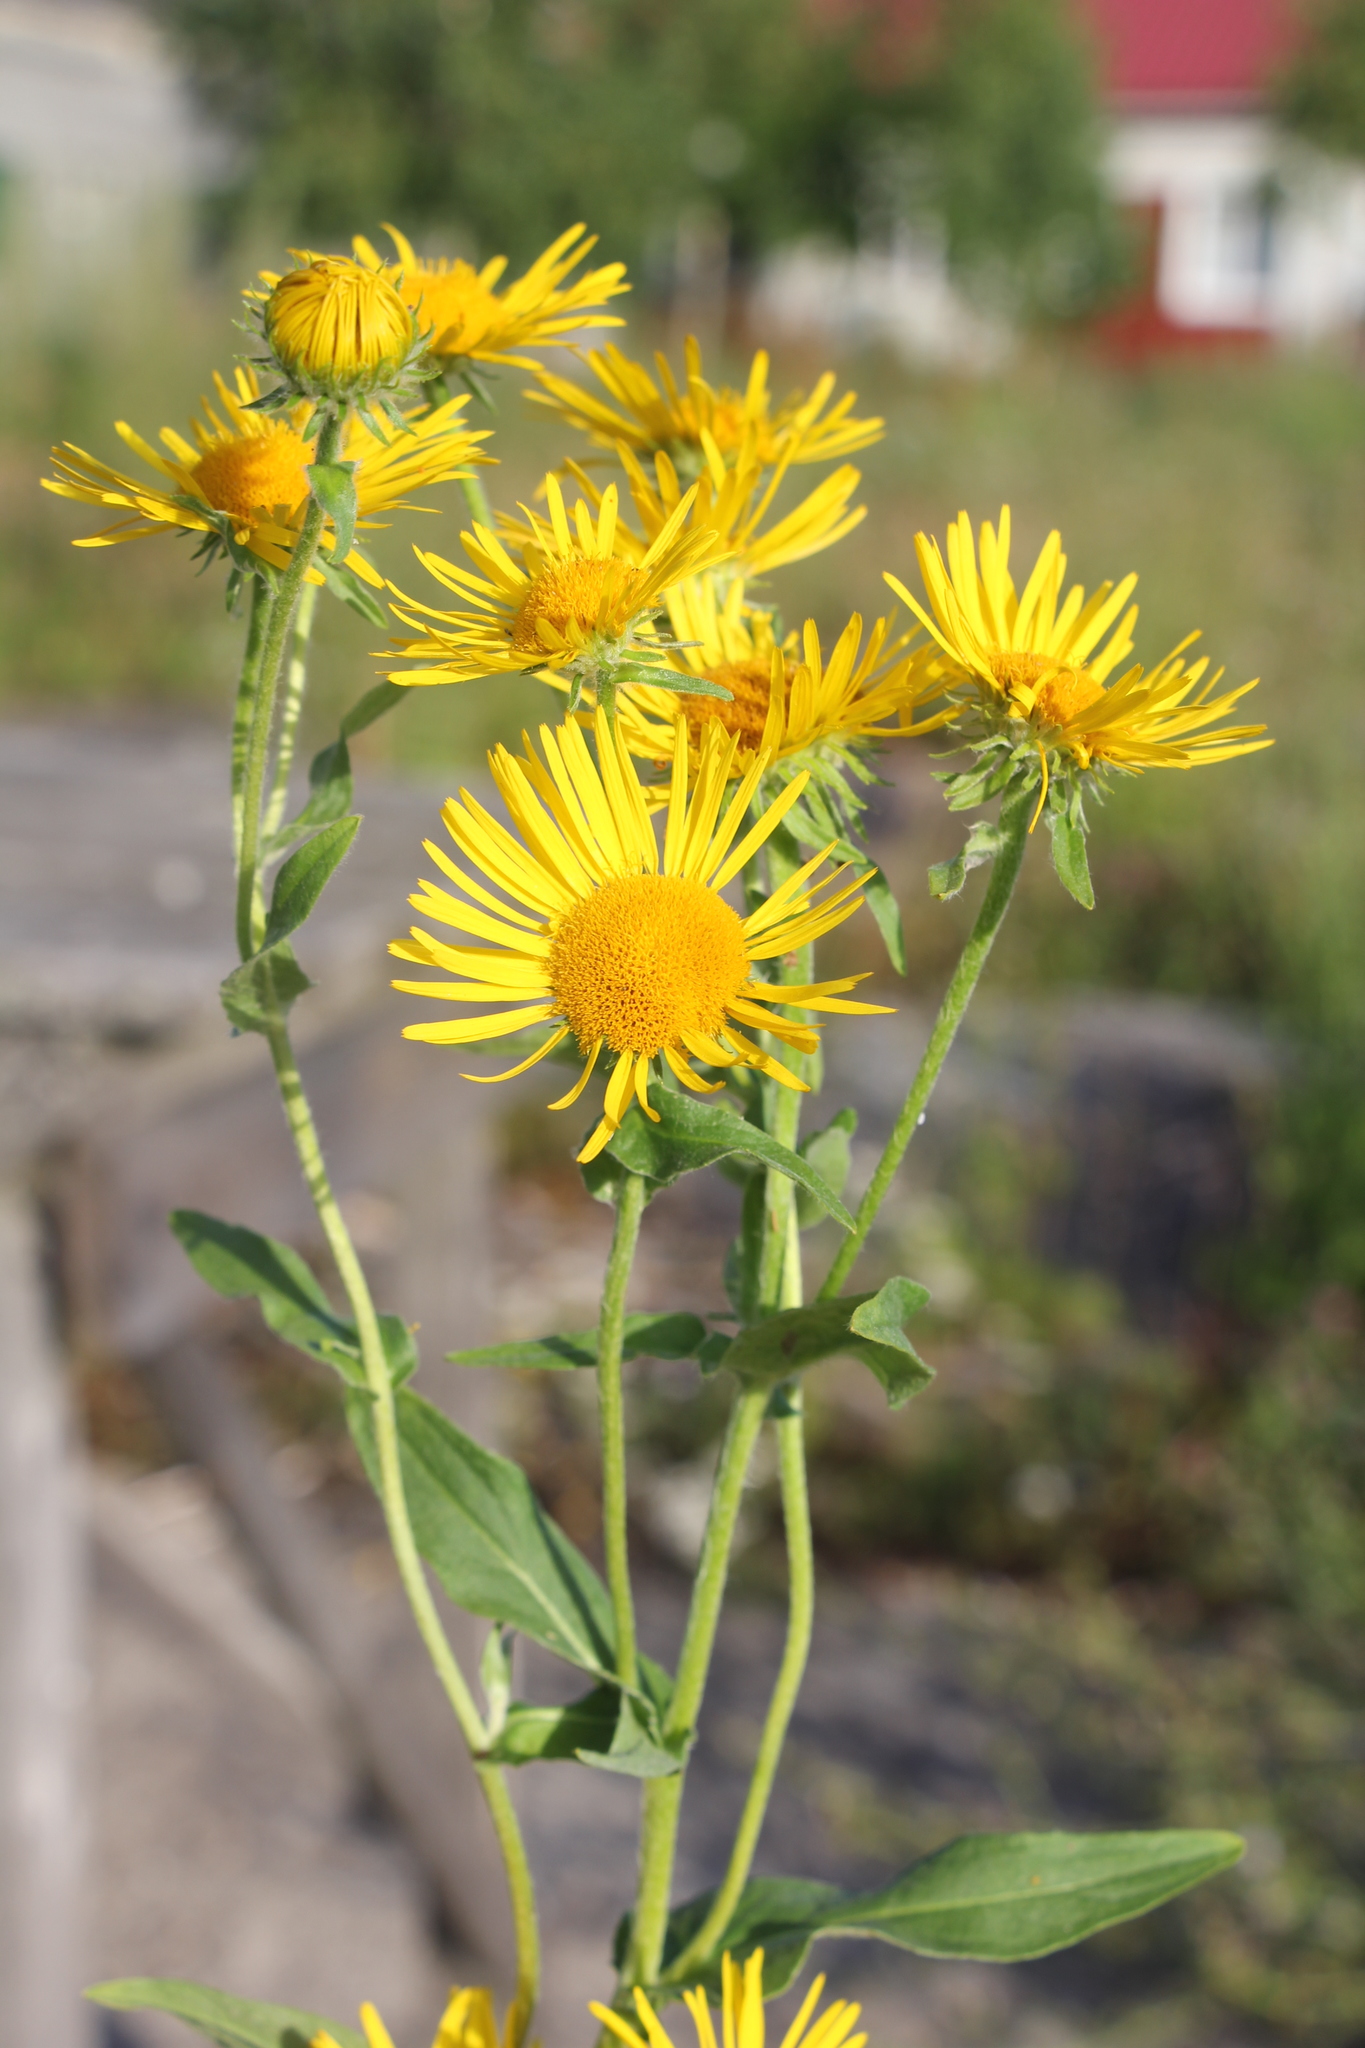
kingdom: Plantae
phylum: Tracheophyta
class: Magnoliopsida
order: Asterales
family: Asteraceae
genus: Pentanema
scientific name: Pentanema britannicum
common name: British elecampane
